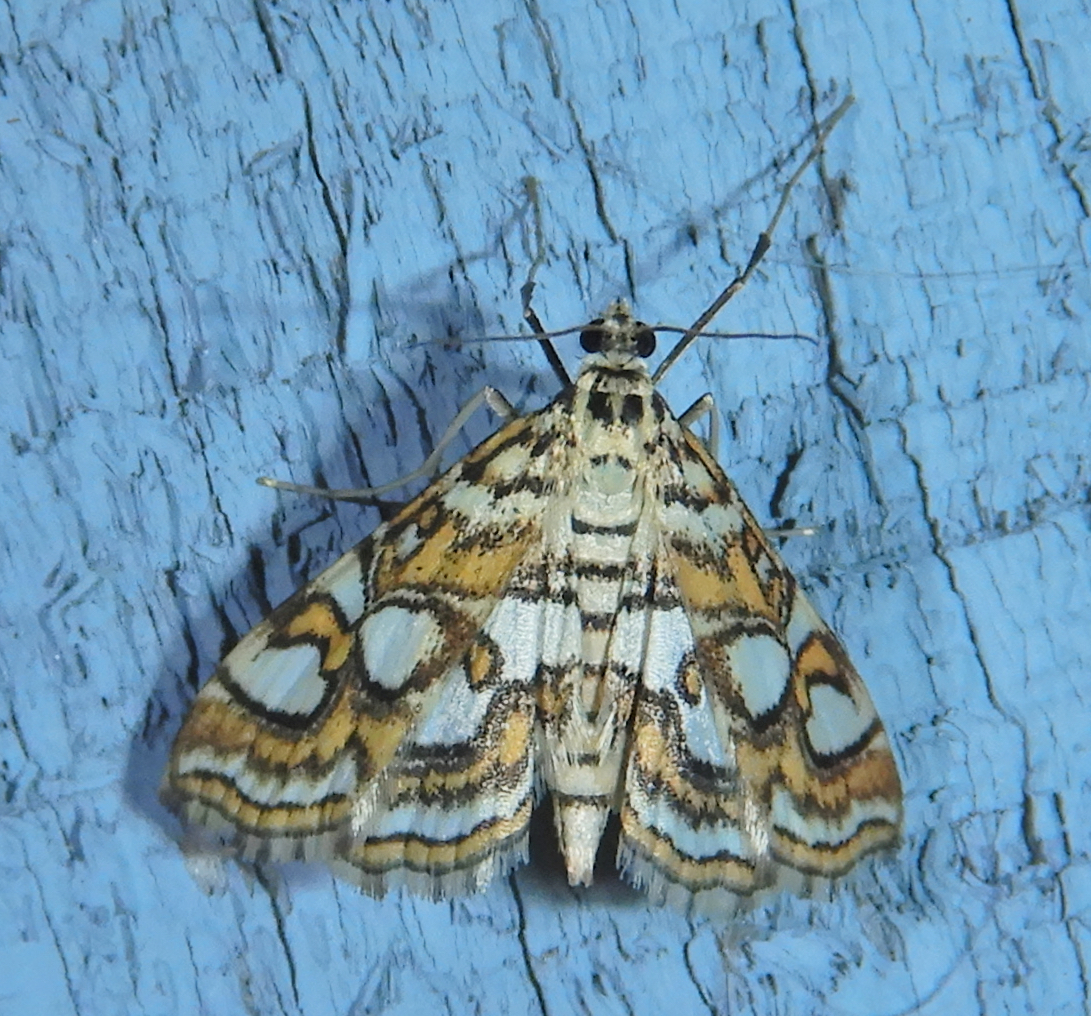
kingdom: Animalia
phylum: Arthropoda
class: Insecta
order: Lepidoptera
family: Crambidae
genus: Elophila
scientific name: Elophila ekthlipsis
